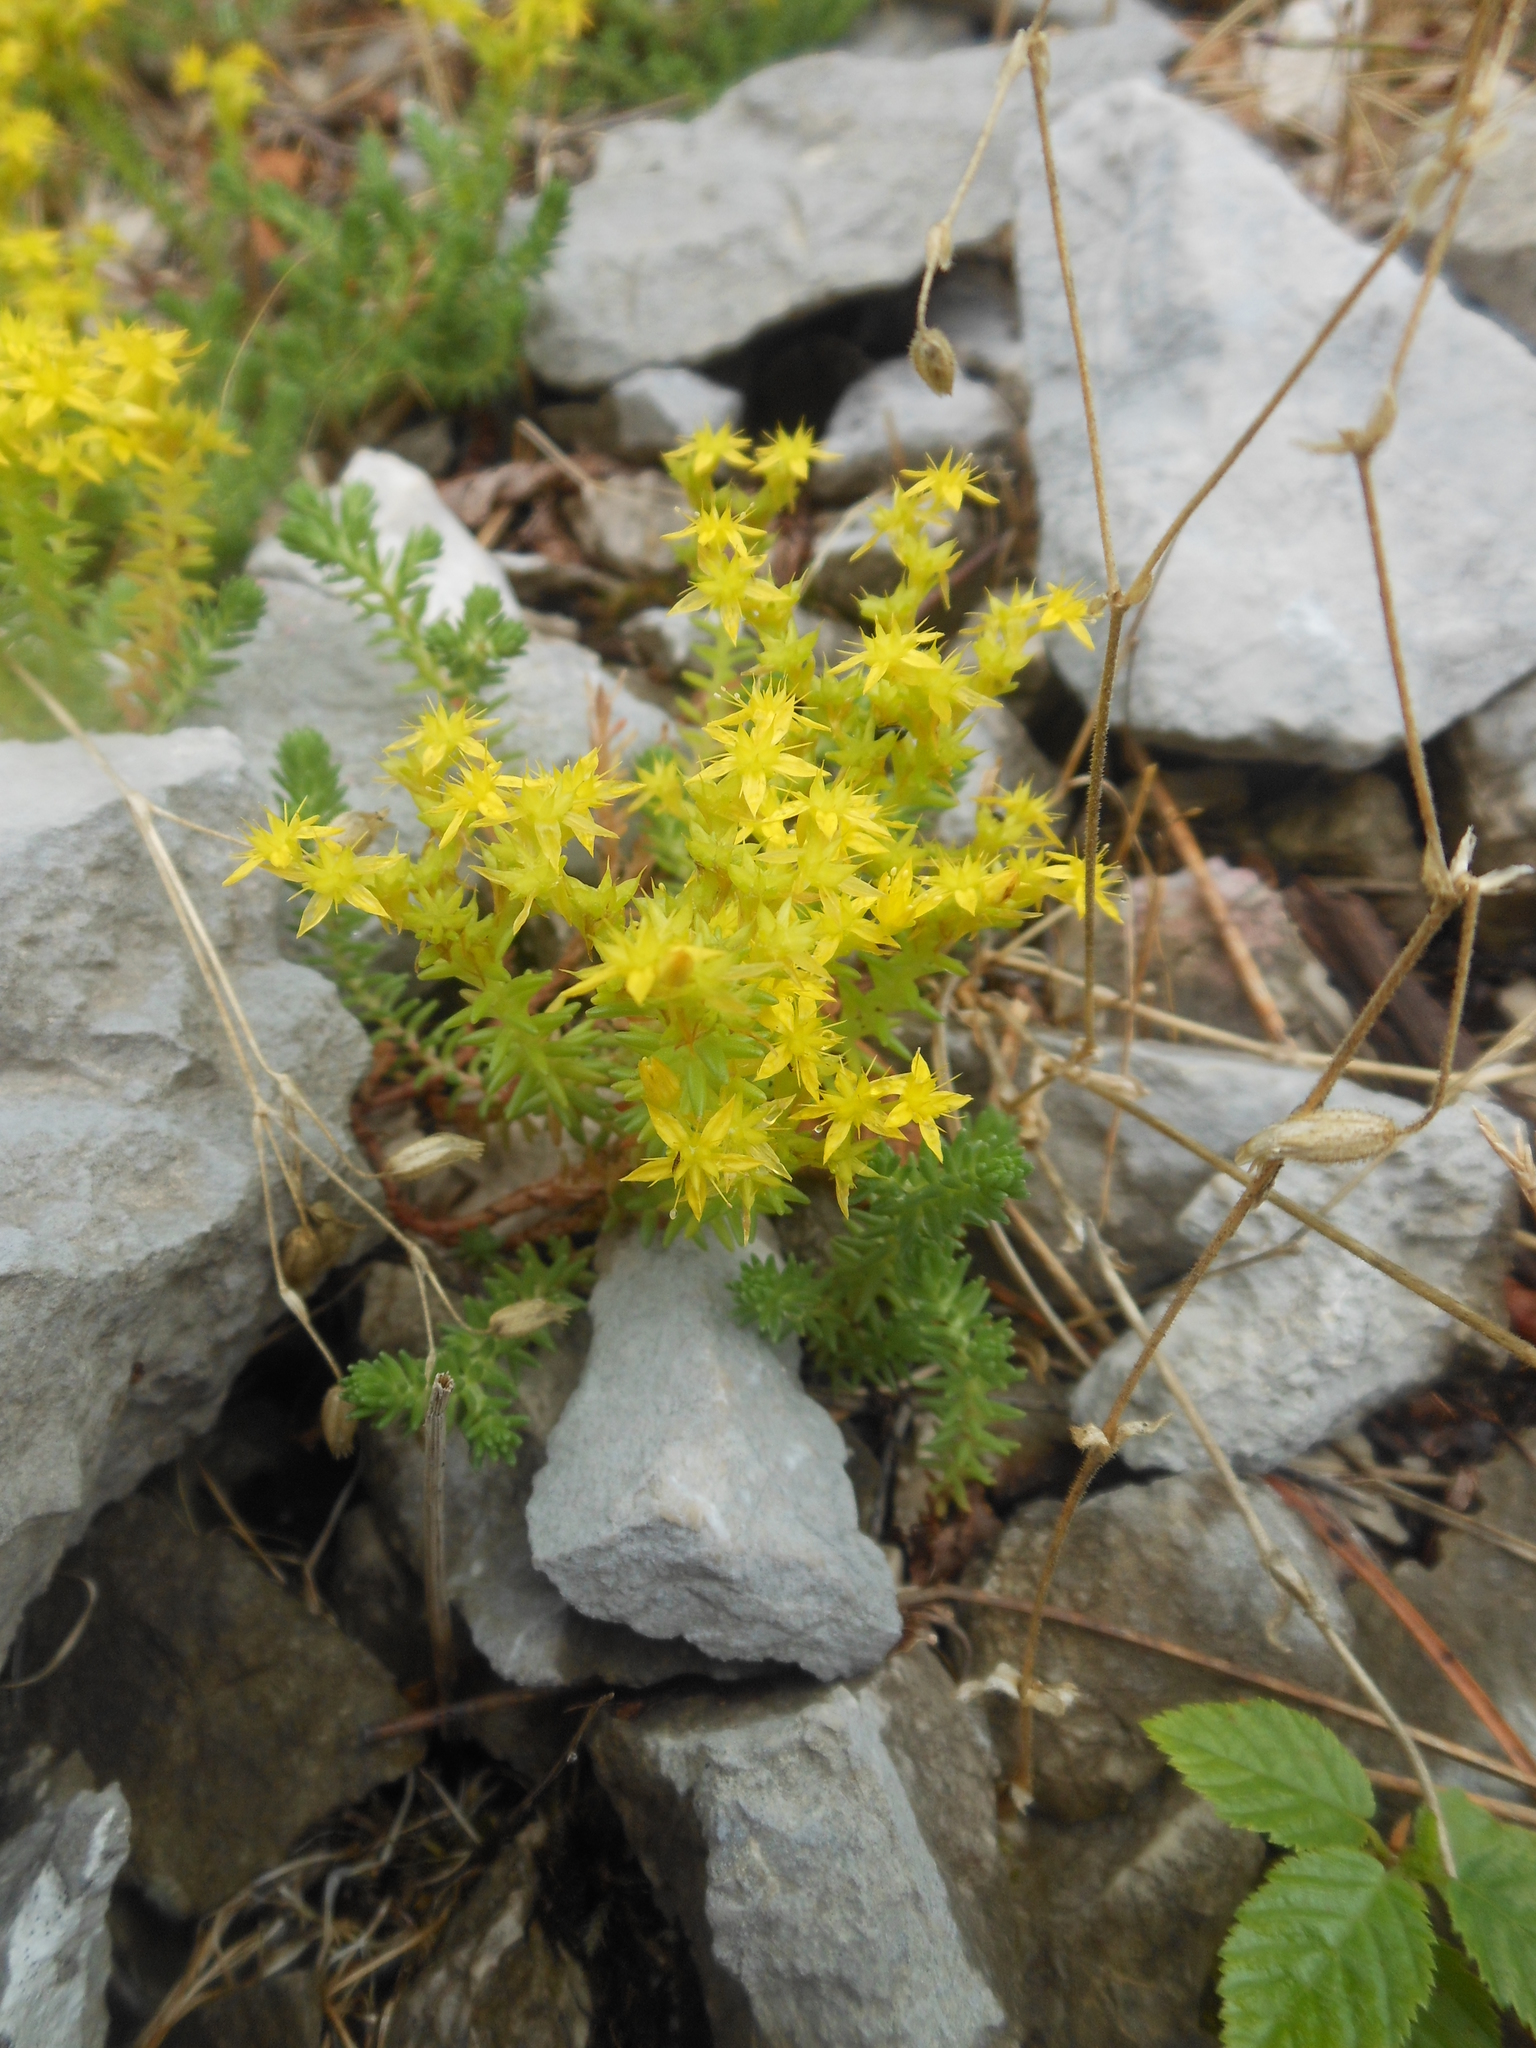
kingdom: Plantae
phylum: Tracheophyta
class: Magnoliopsida
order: Saxifragales
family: Crassulaceae
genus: Sedum
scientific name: Sedum sexangulare
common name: Tasteless stonecrop
